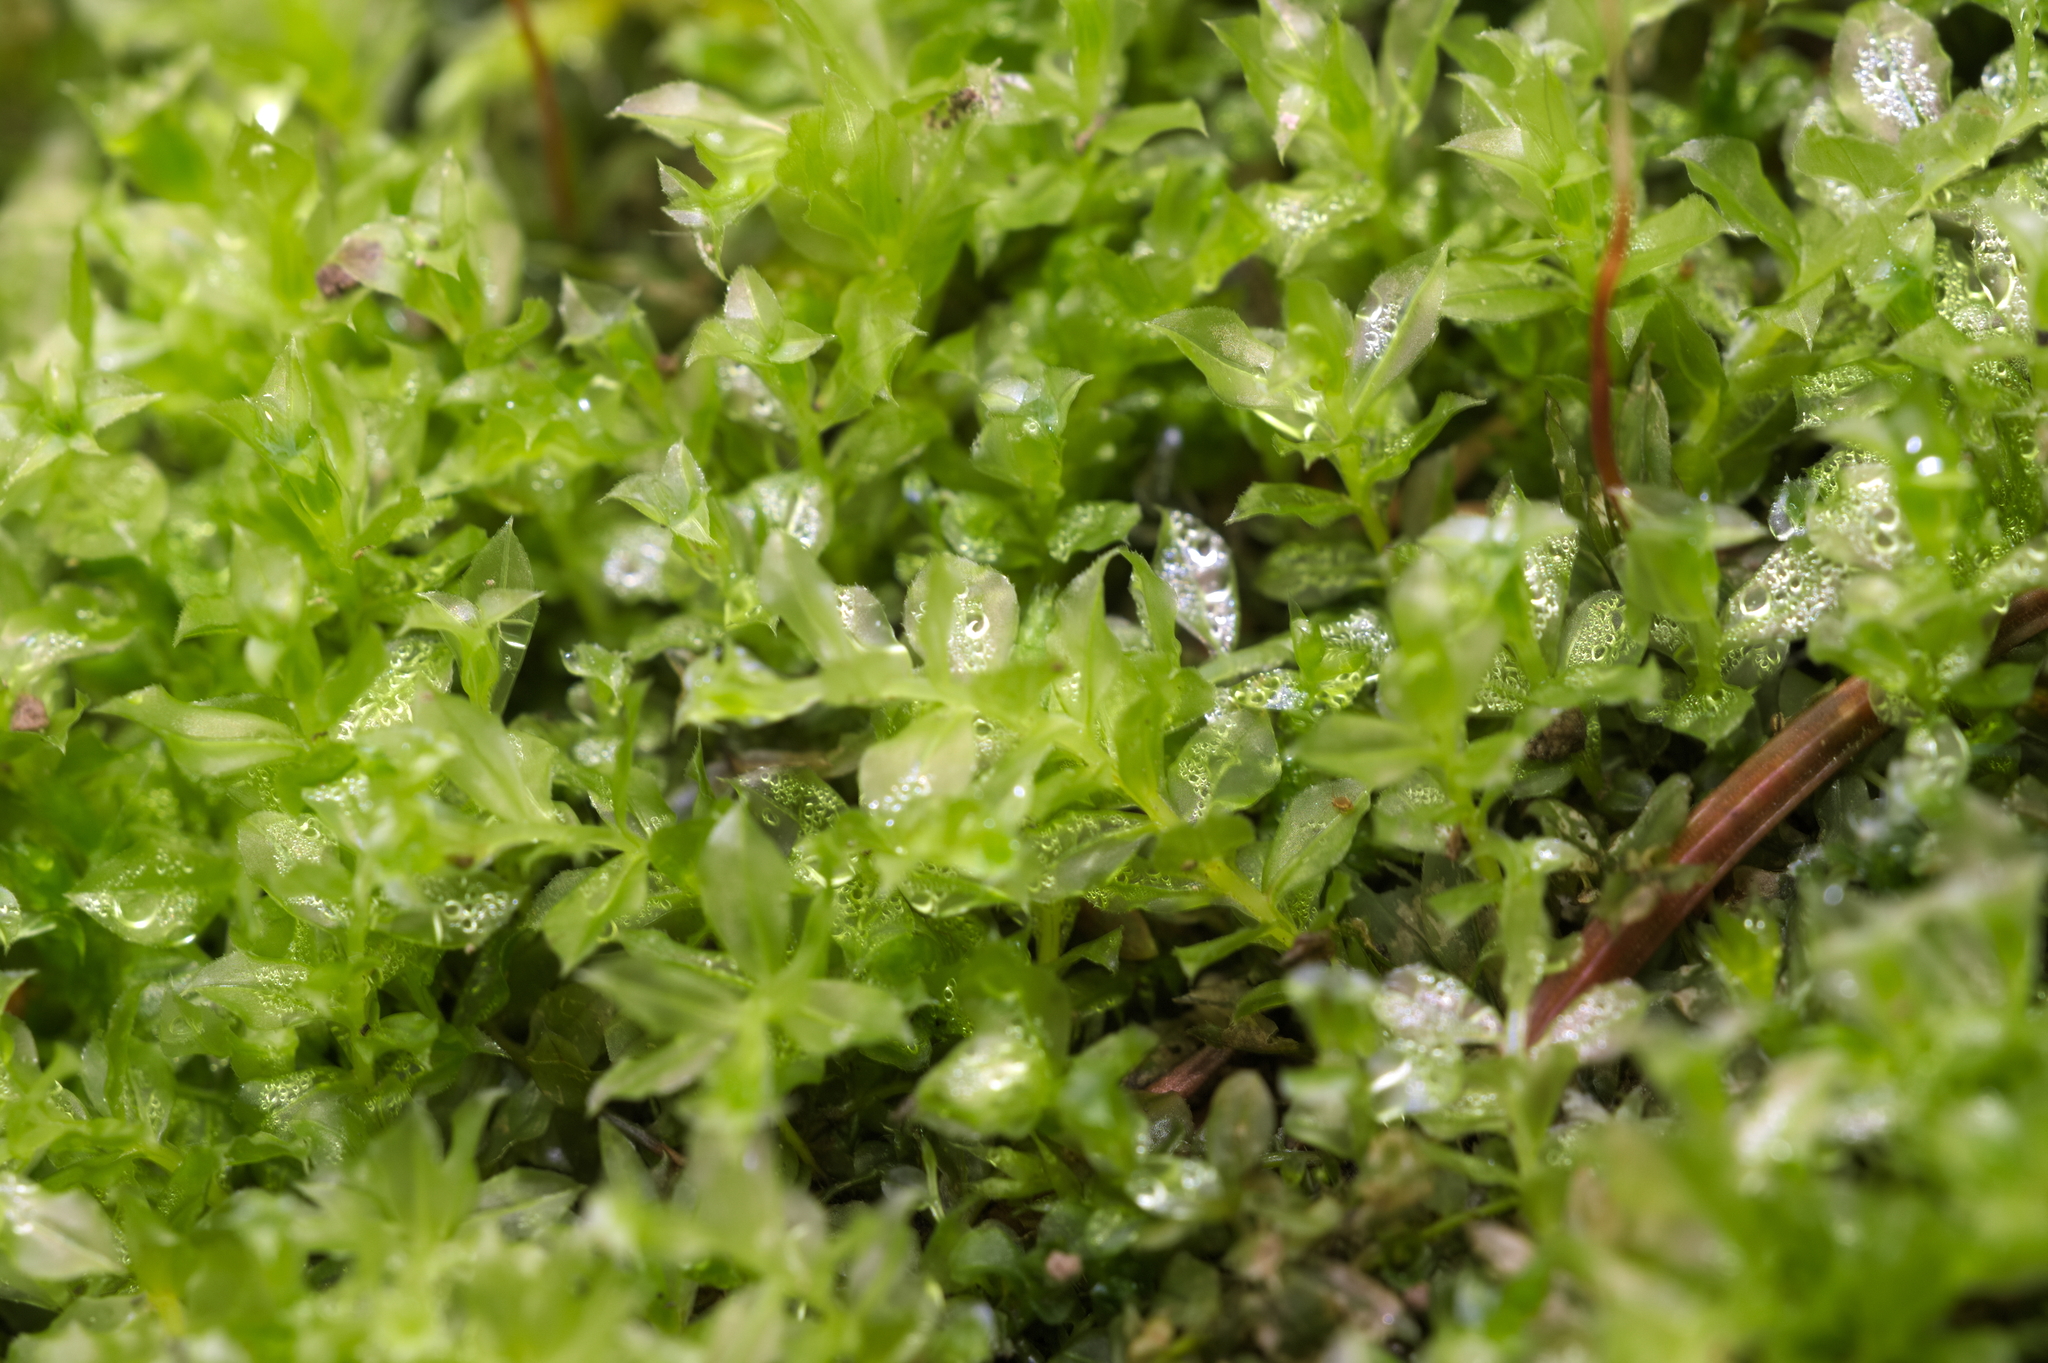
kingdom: Plantae
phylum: Bryophyta
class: Bryopsida
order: Bryales
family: Mniaceae
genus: Plagiomnium
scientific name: Plagiomnium cuspidatum
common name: Woodsy leafy moss
